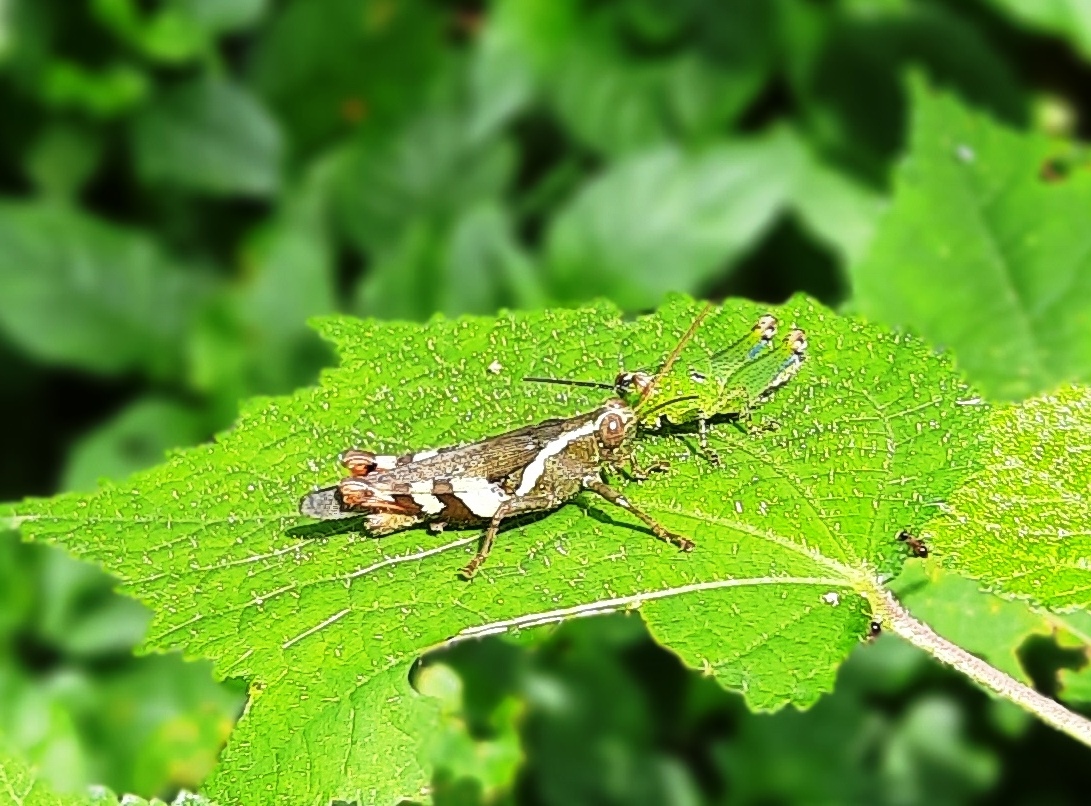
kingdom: Animalia
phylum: Arthropoda
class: Insecta
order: Orthoptera
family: Acrididae
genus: Xenocatantops
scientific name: Xenocatantops humile
